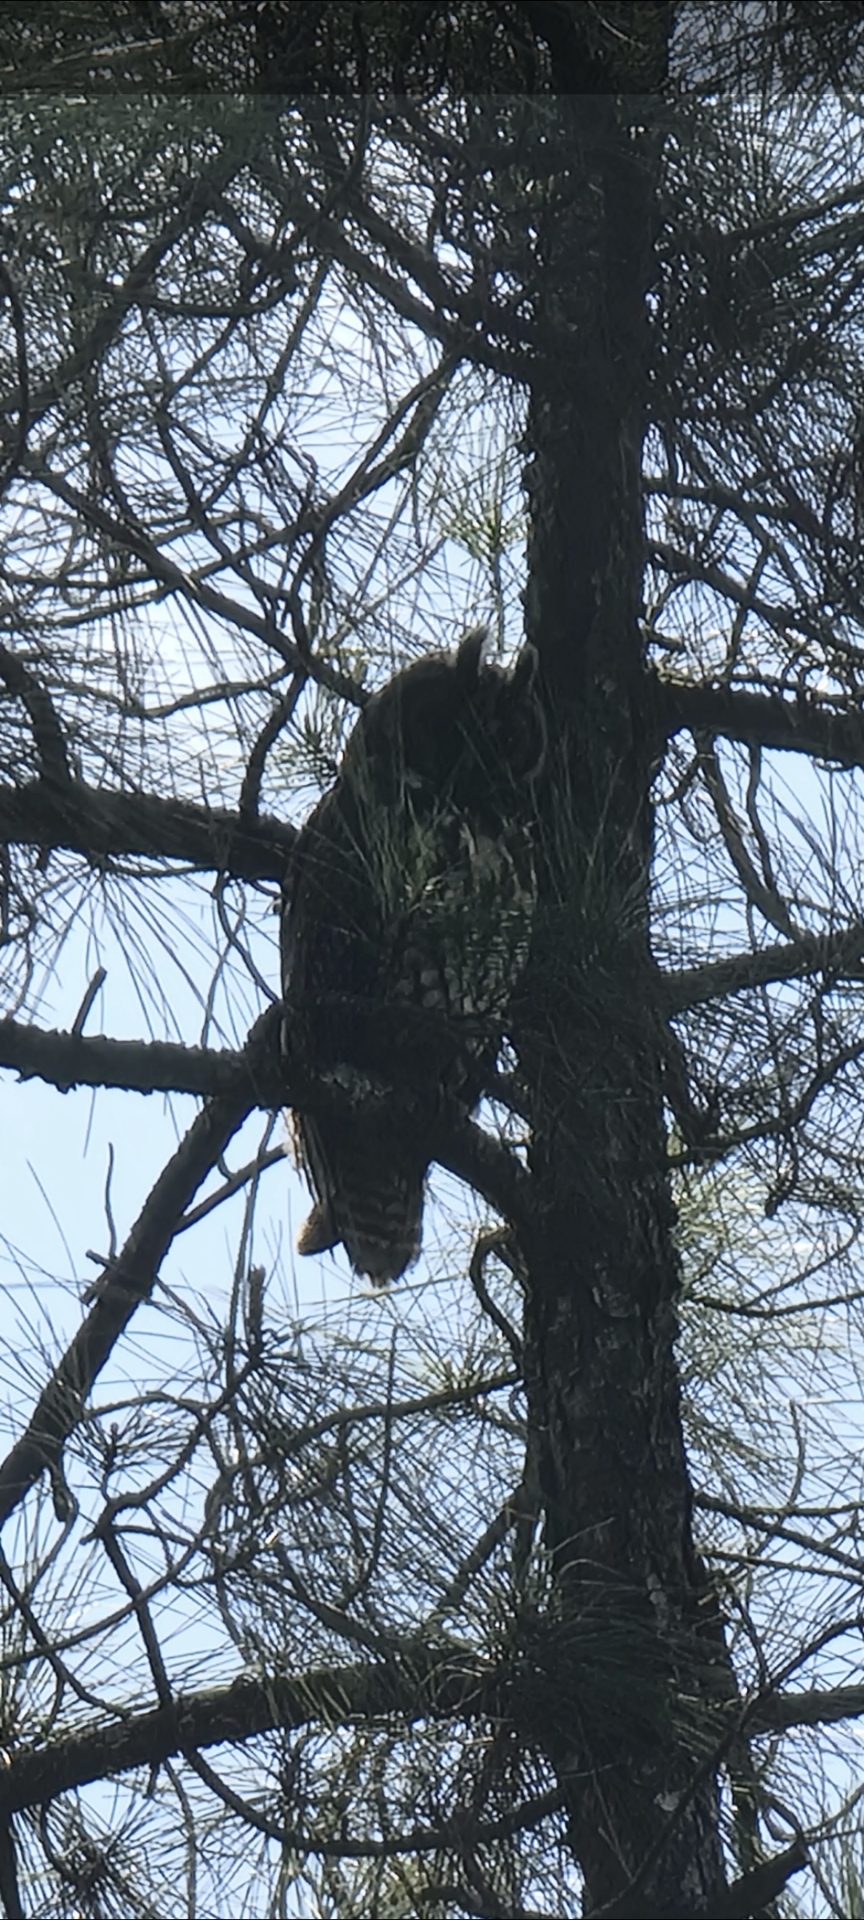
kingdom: Animalia
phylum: Chordata
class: Aves
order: Strigiformes
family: Strigidae
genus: Asio
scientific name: Asio stygius
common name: Stygian owl
